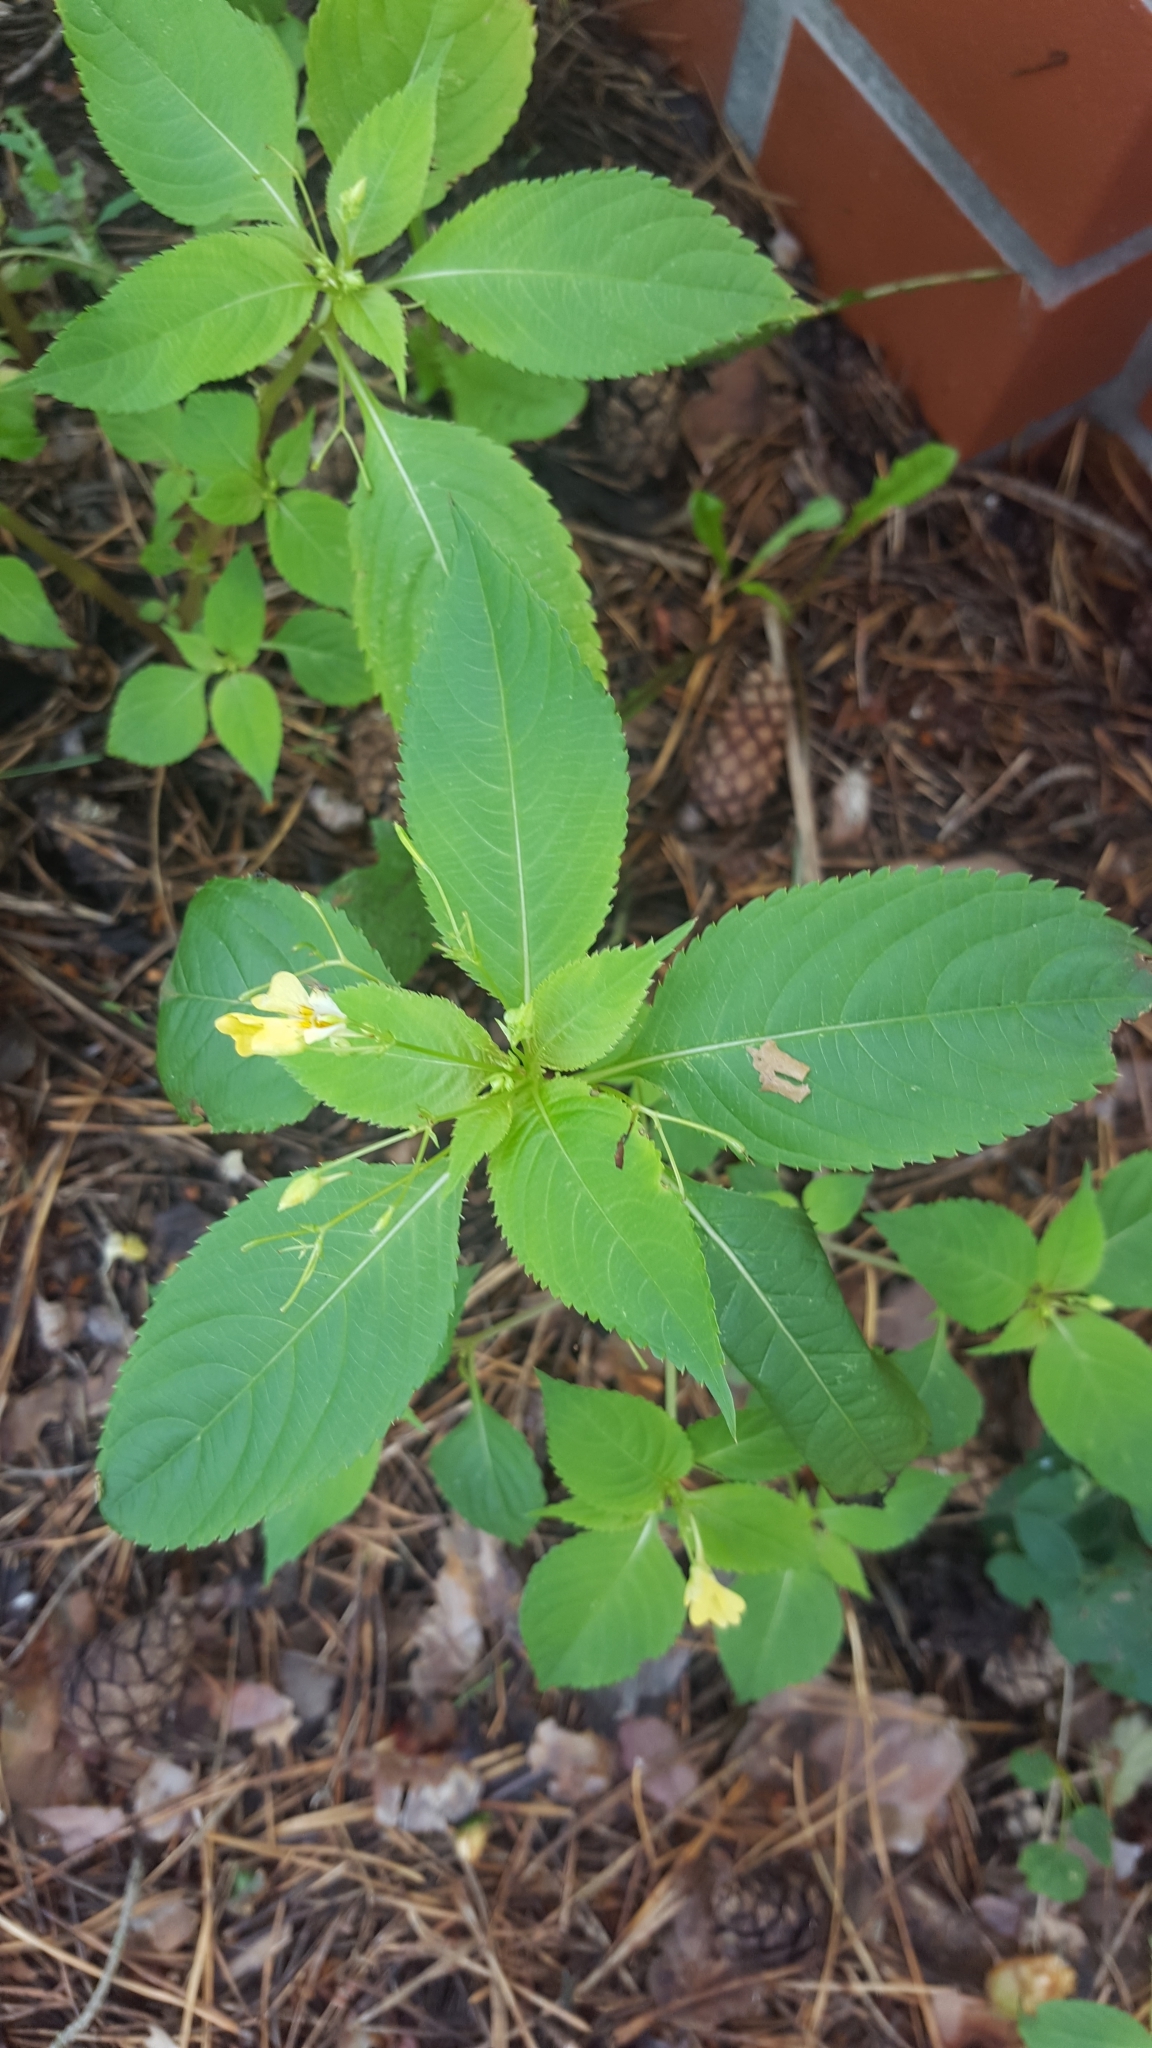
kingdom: Plantae
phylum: Tracheophyta
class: Magnoliopsida
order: Ericales
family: Balsaminaceae
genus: Impatiens
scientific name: Impatiens parviflora
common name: Small balsam
